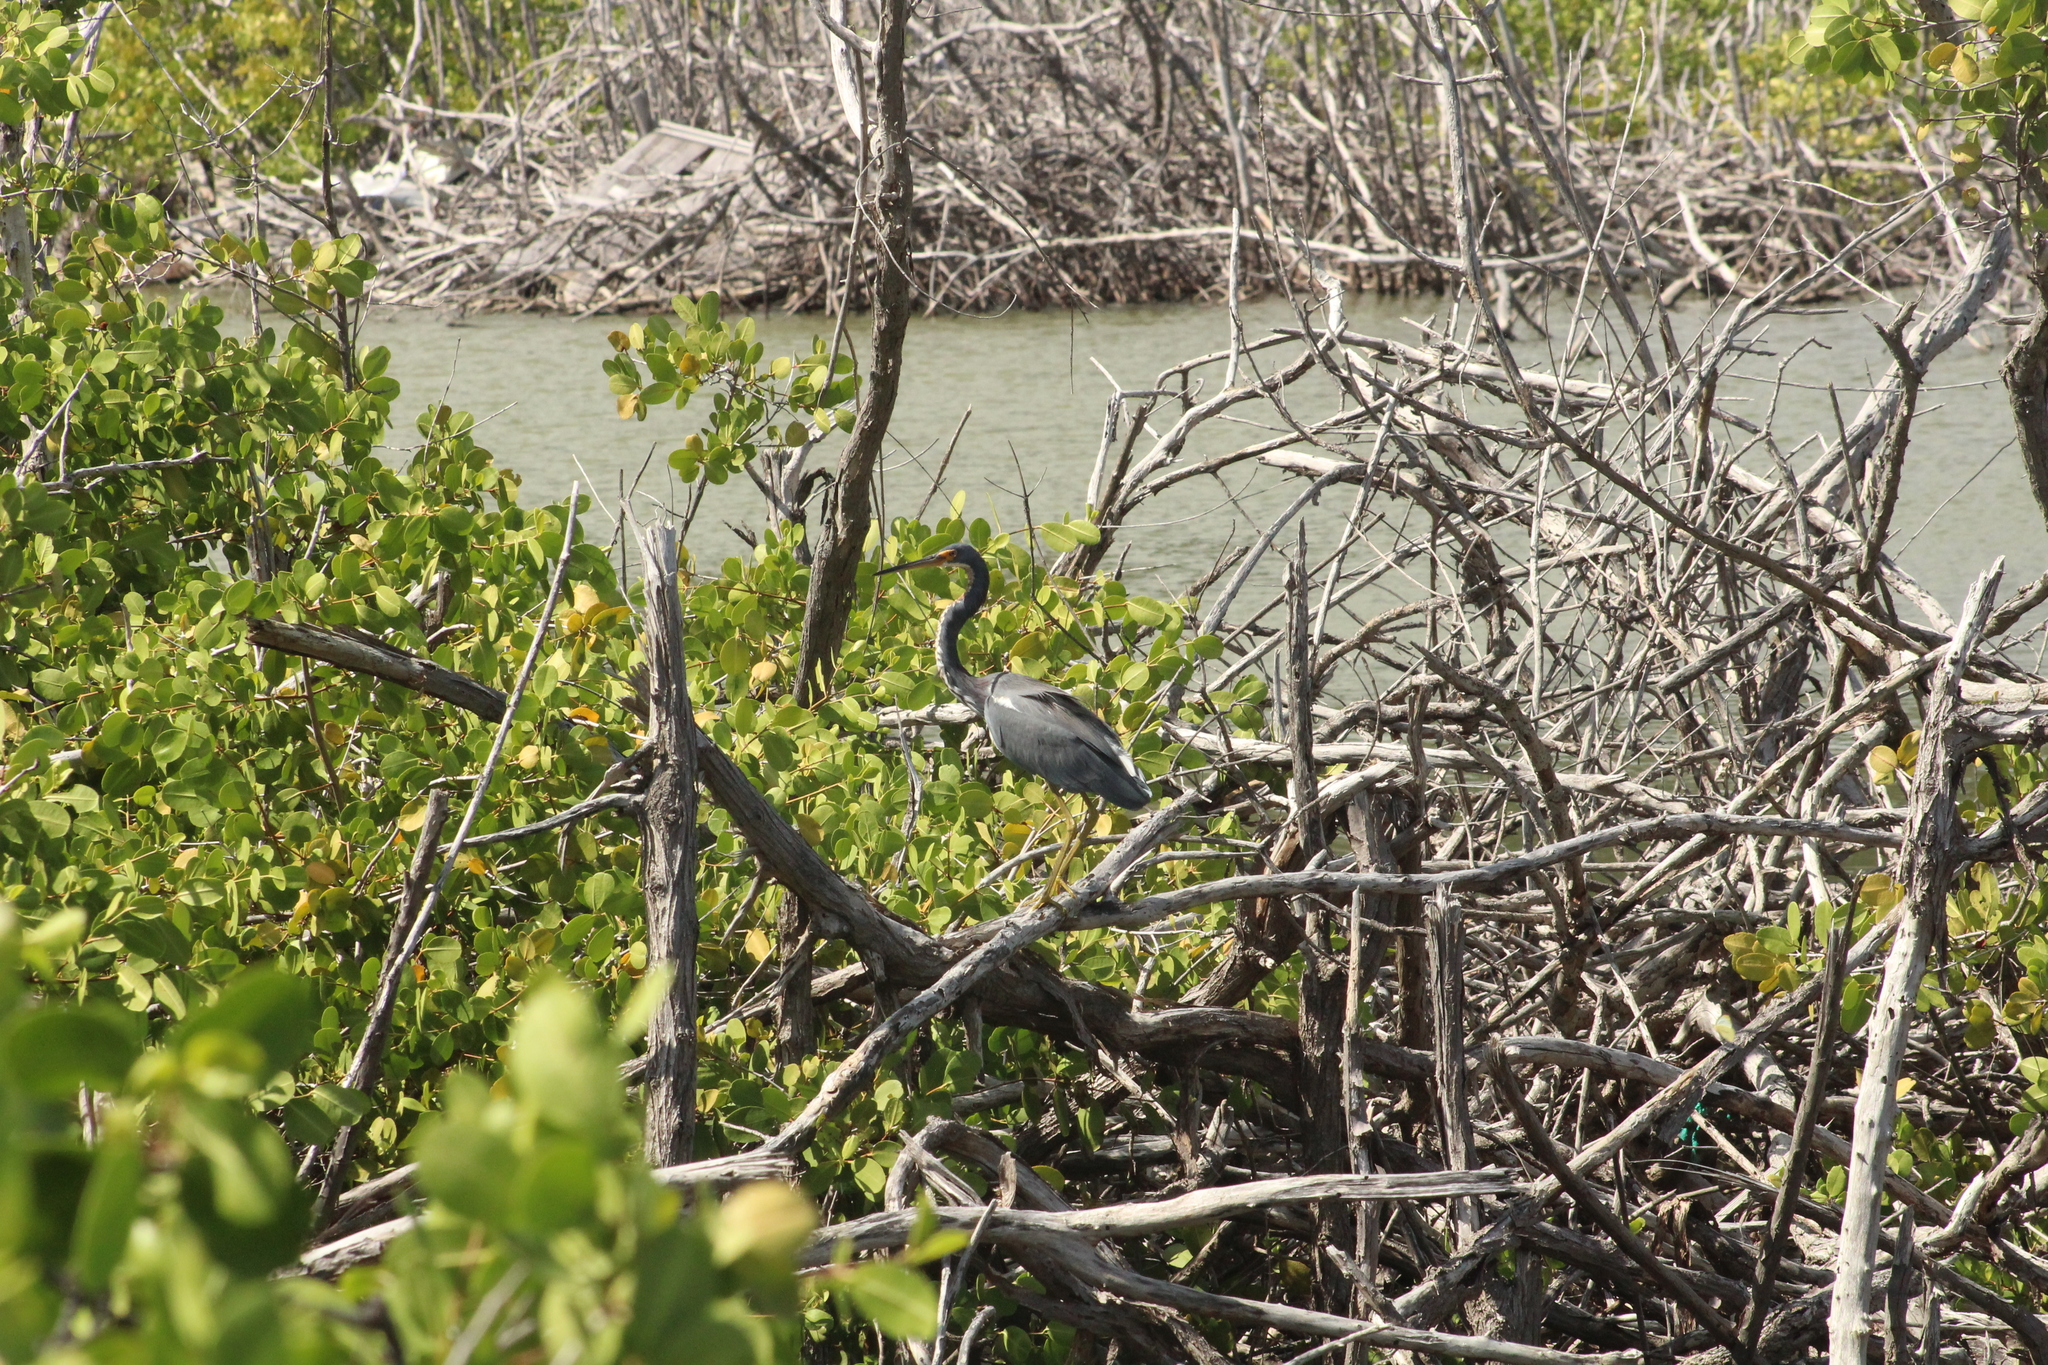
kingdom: Animalia
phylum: Chordata
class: Aves
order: Pelecaniformes
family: Ardeidae
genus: Egretta
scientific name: Egretta tricolor
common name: Tricolored heron
